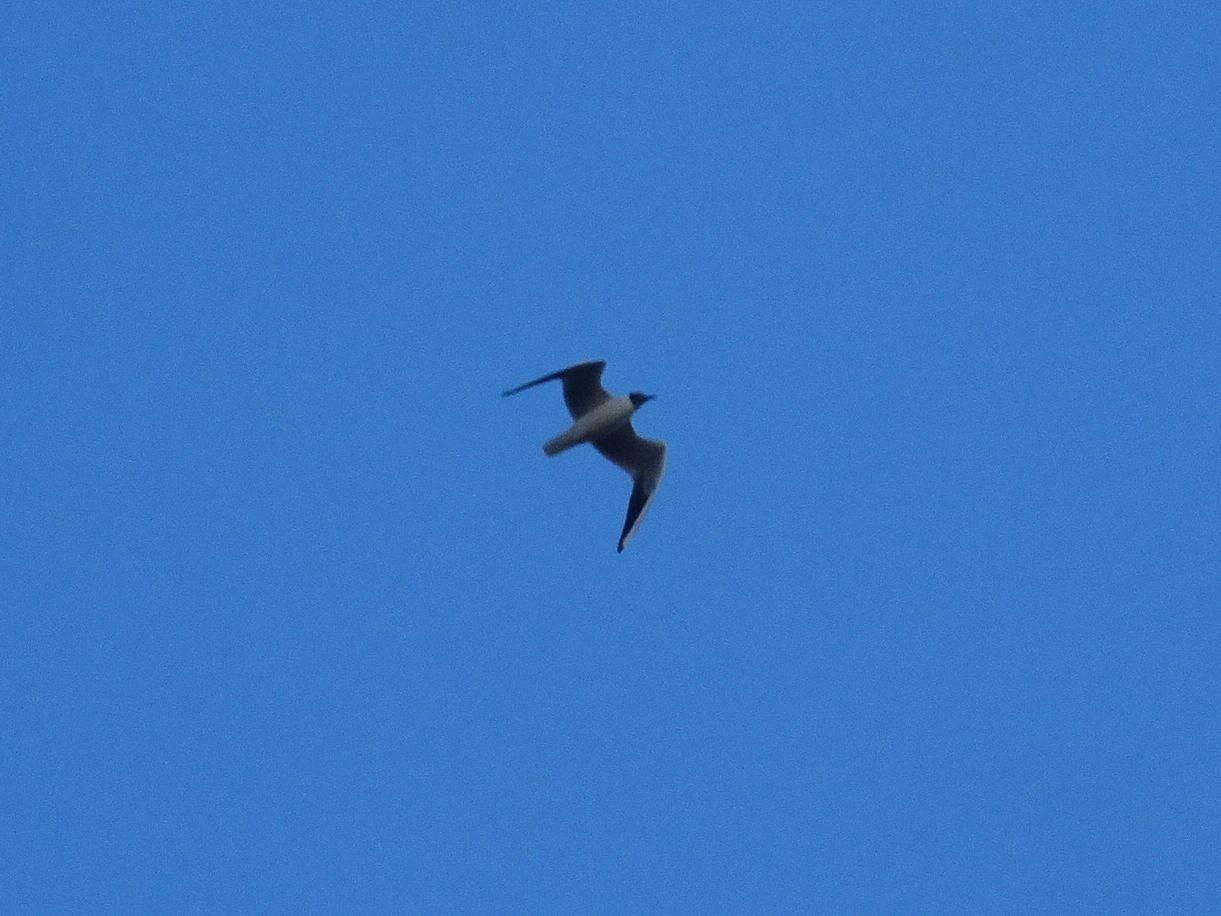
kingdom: Animalia
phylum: Chordata
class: Aves
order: Charadriiformes
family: Laridae
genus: Chroicocephalus
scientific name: Chroicocephalus ridibundus
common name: Black-headed gull
